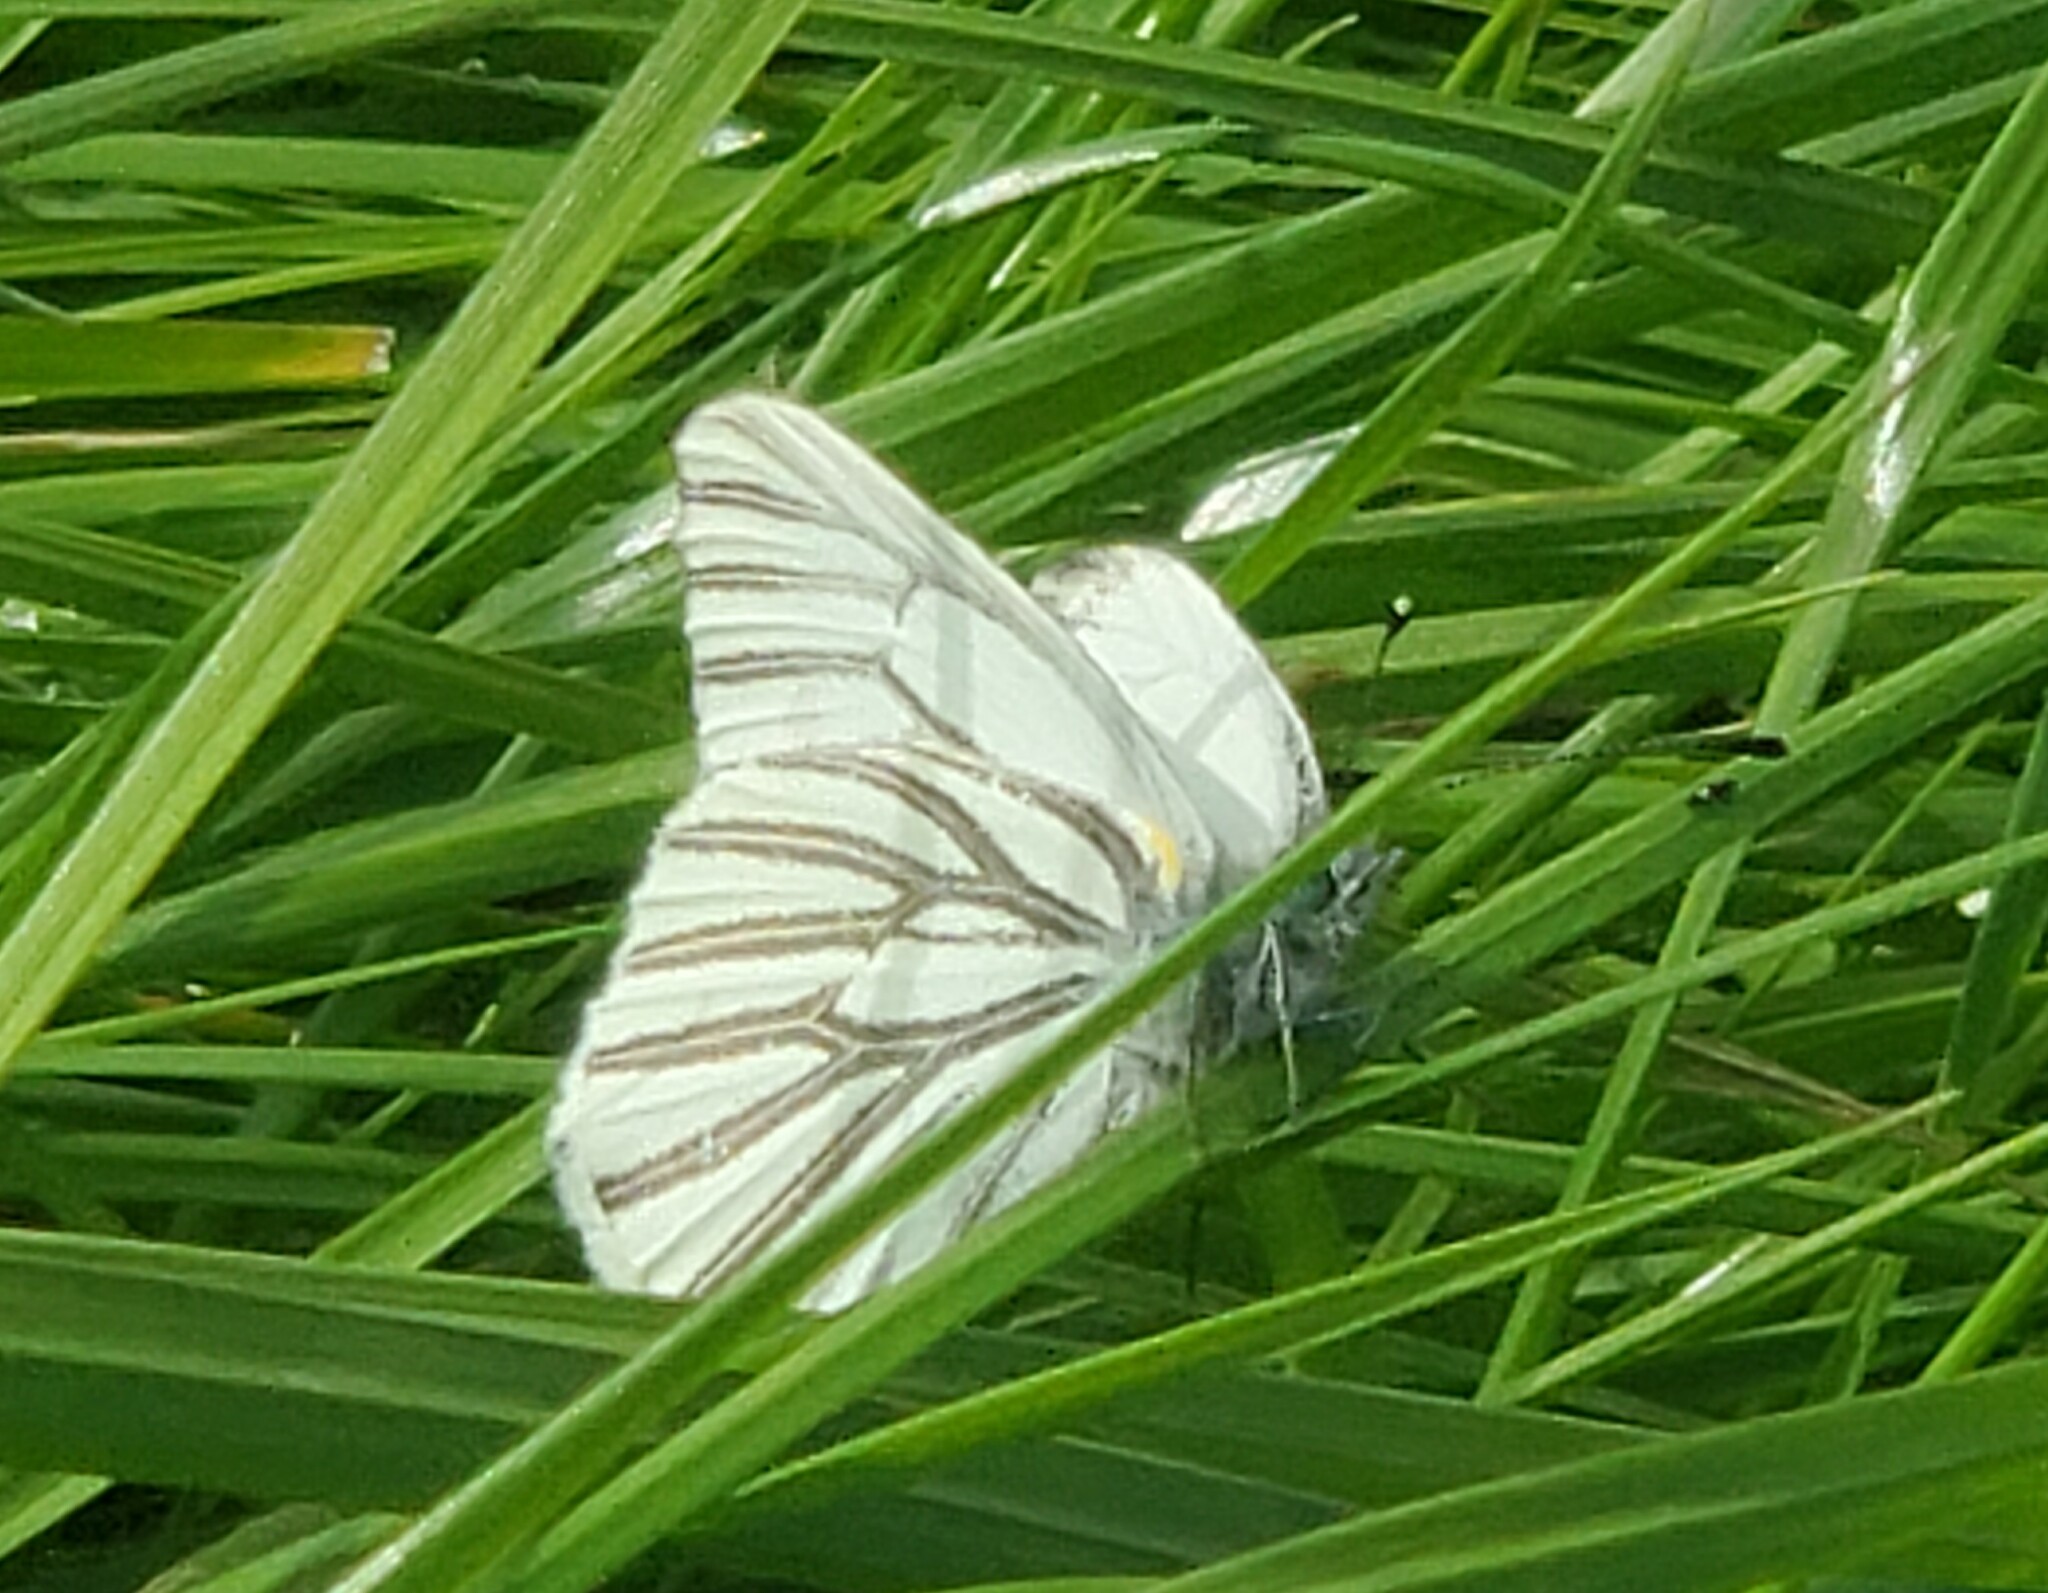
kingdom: Animalia
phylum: Arthropoda
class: Insecta
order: Lepidoptera
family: Pieridae
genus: Pieris
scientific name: Pieris marginalis
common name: Margined white
